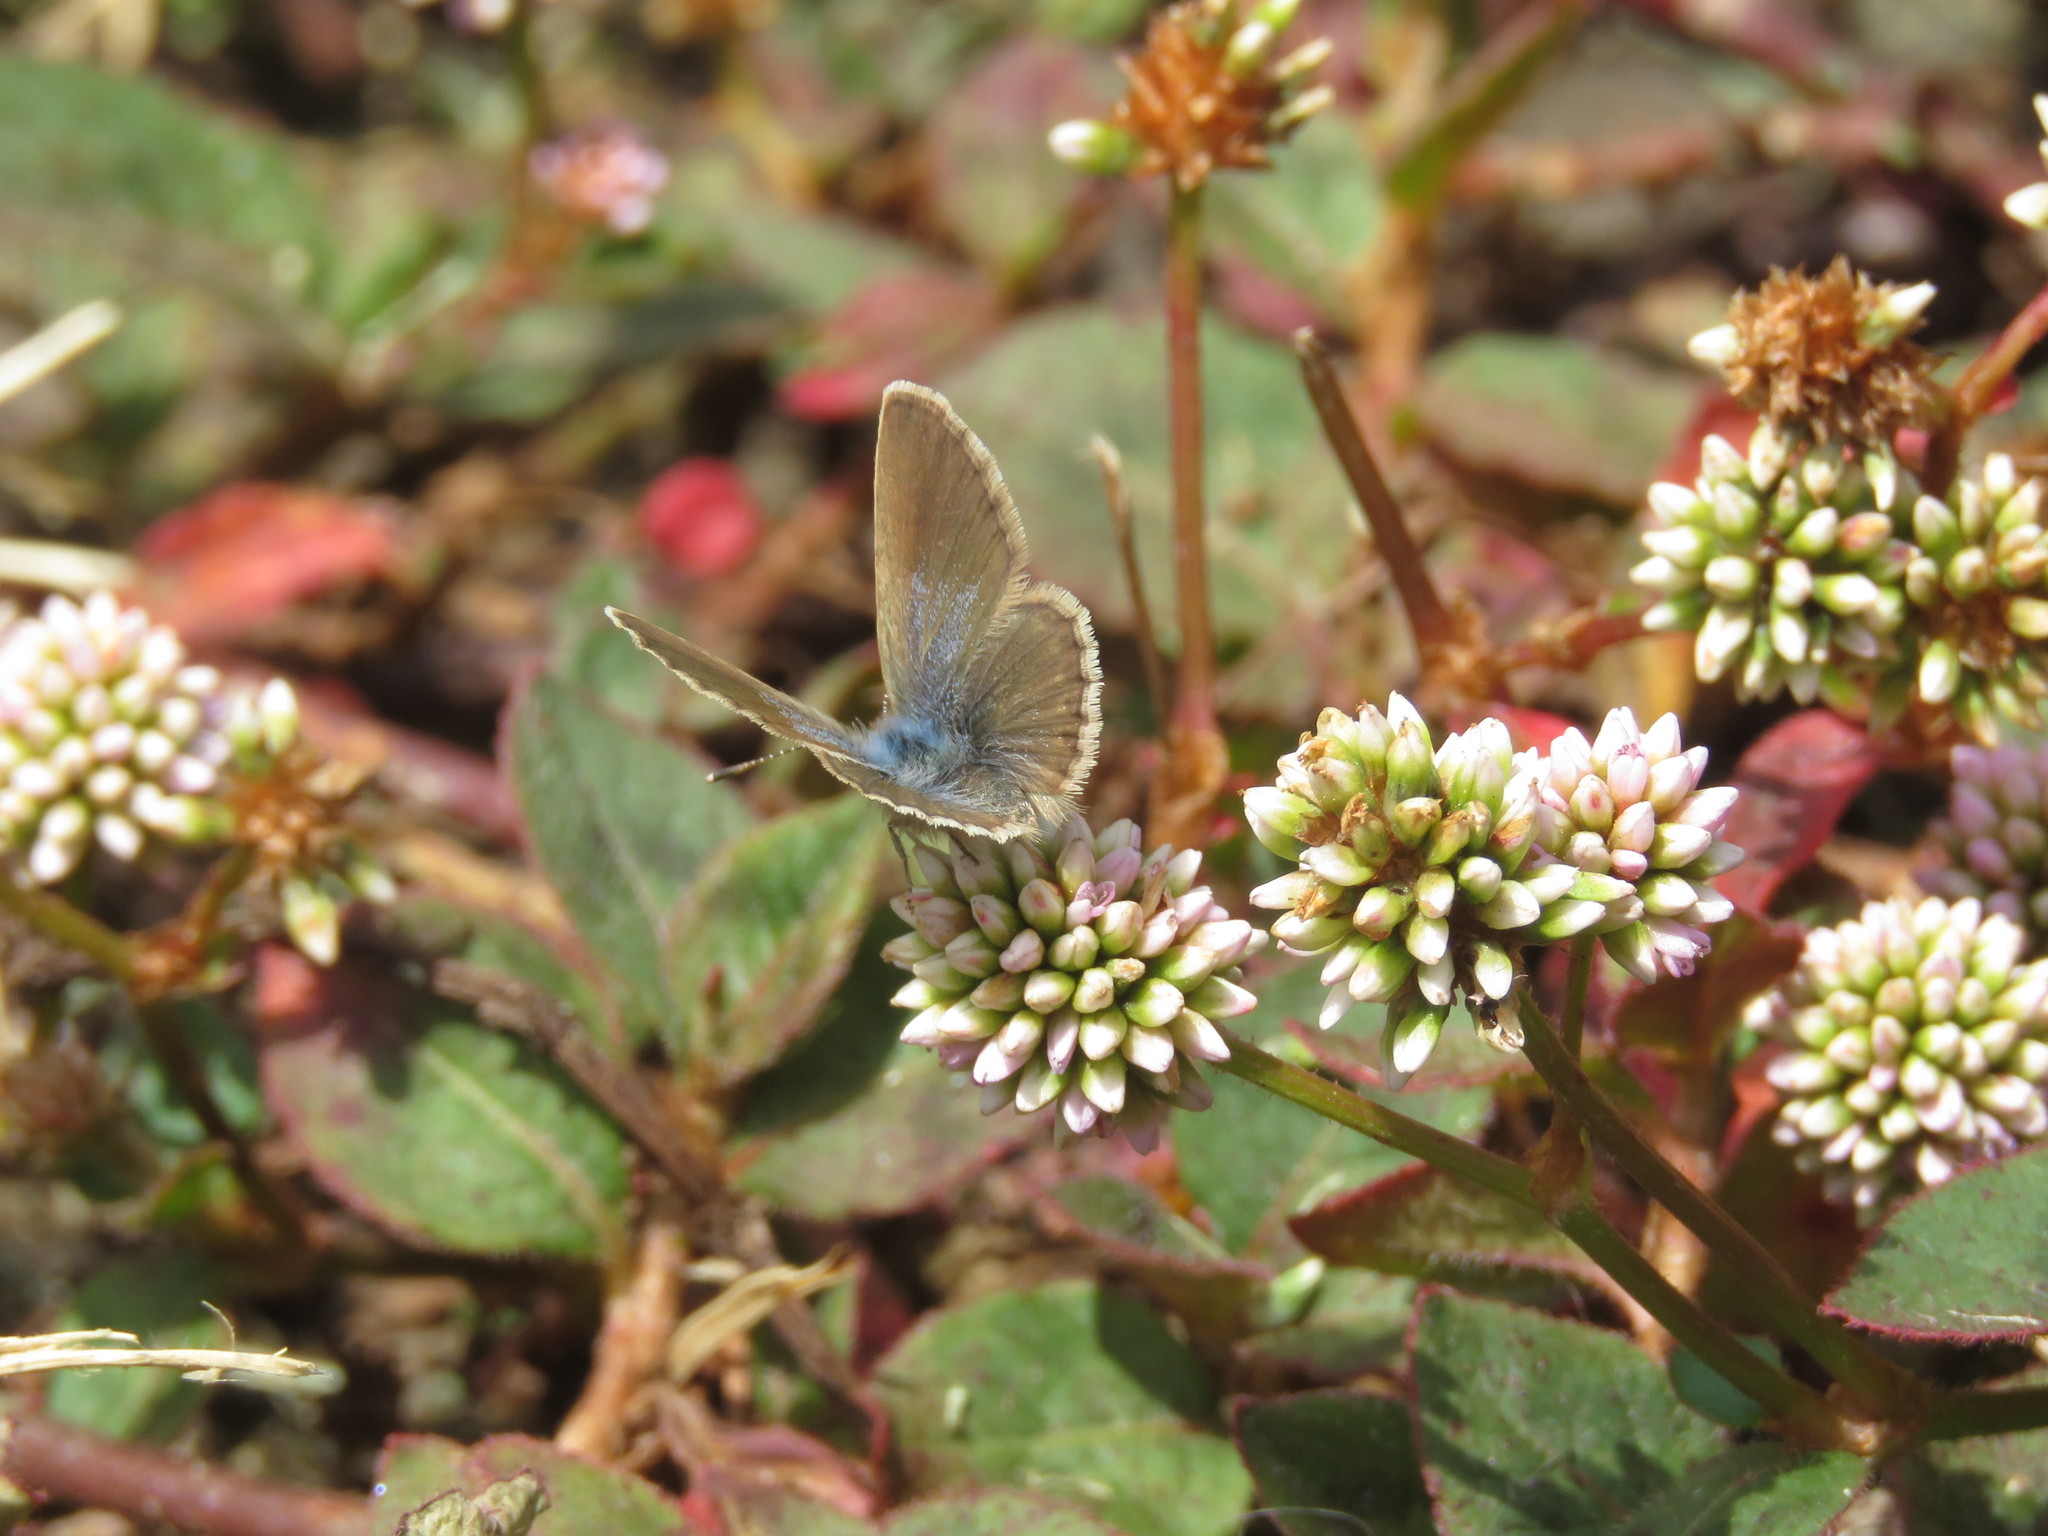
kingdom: Plantae
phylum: Tracheophyta
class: Magnoliopsida
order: Caryophyllales
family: Polygonaceae
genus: Persicaria
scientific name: Persicaria capitata
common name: Pinkhead smartweed
